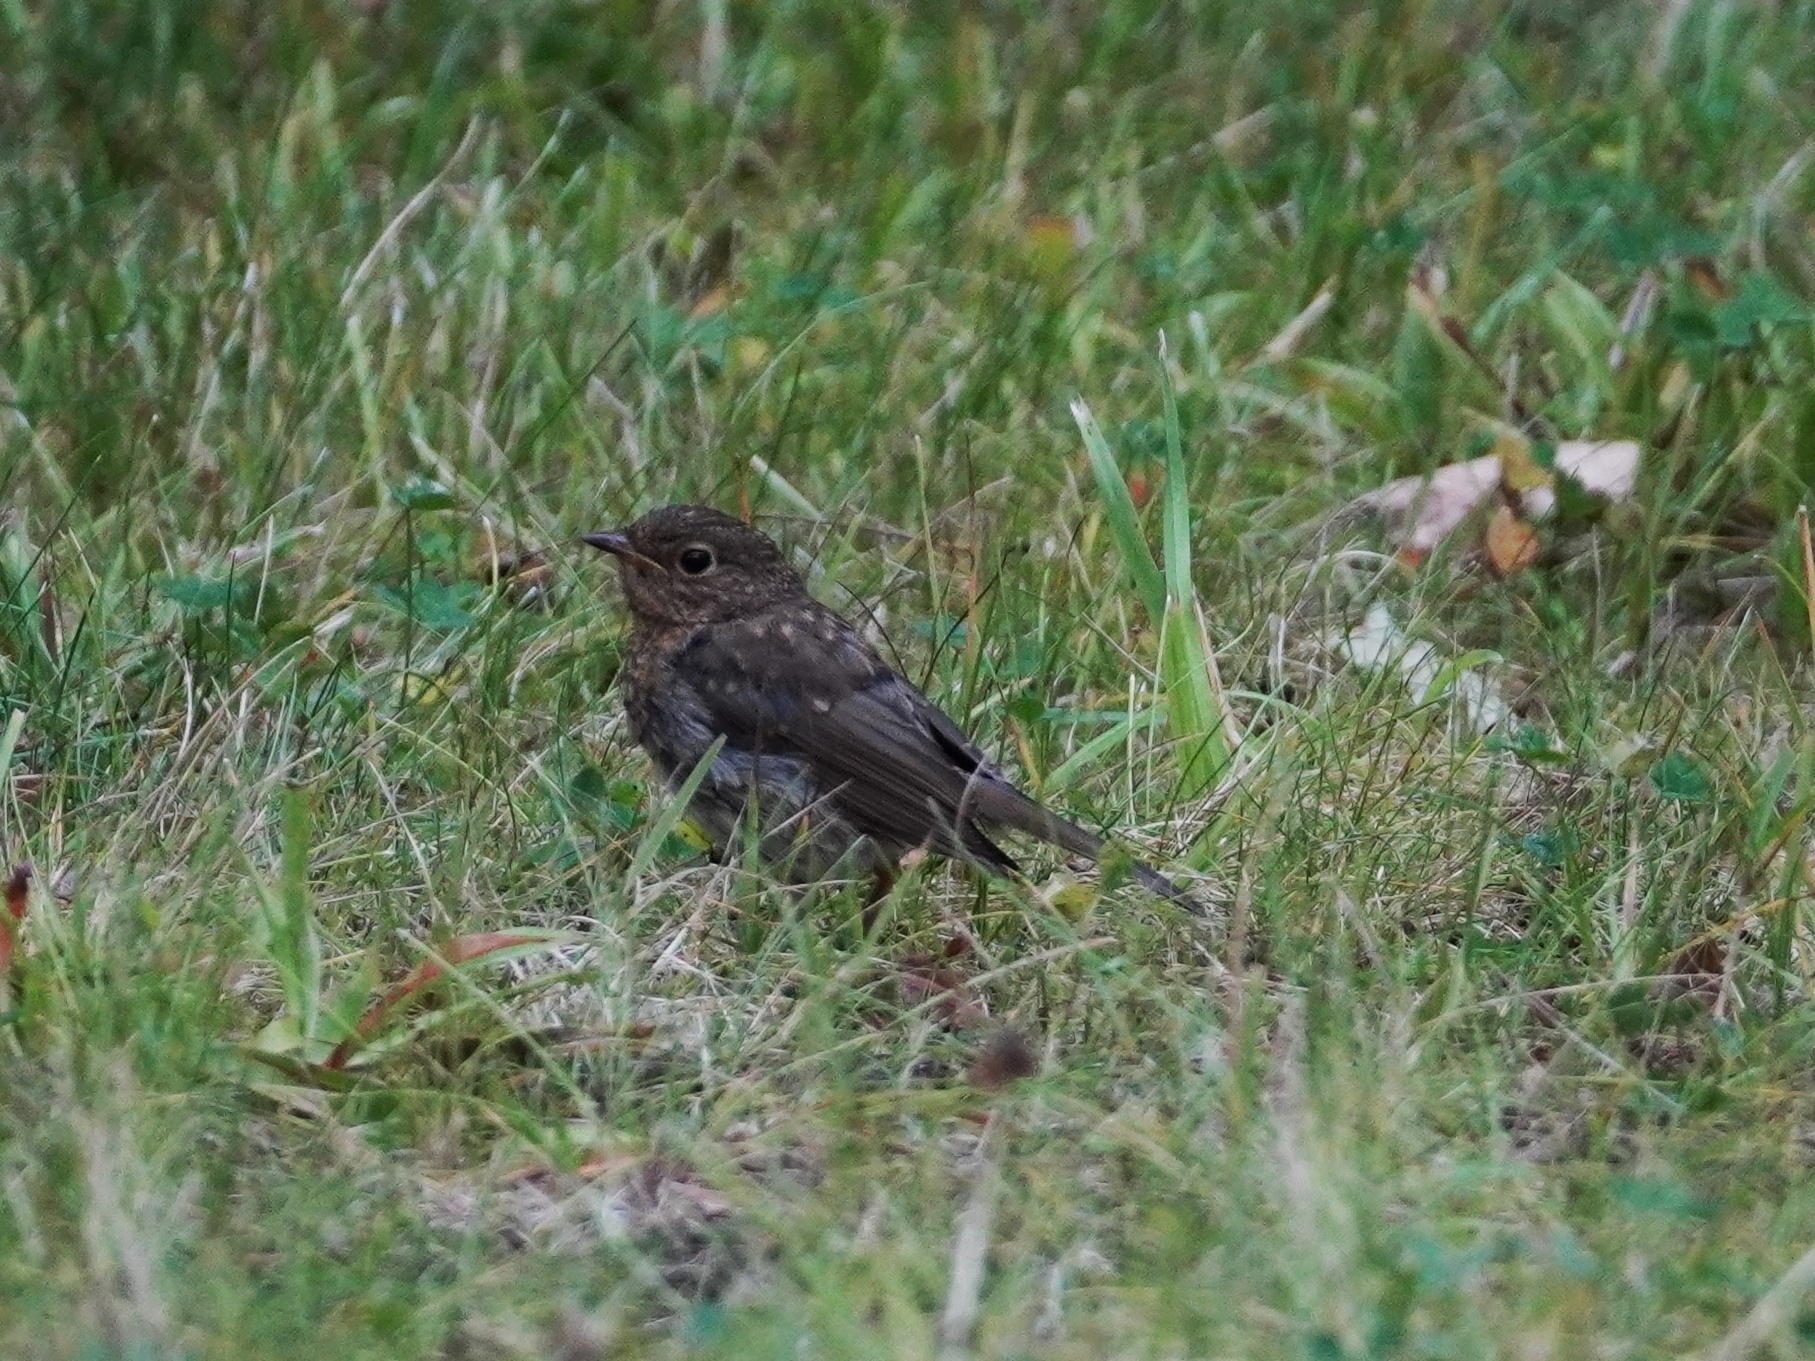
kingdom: Animalia
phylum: Chordata
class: Aves
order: Passeriformes
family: Muscicapidae
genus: Erithacus
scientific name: Erithacus rubecula
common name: European robin
